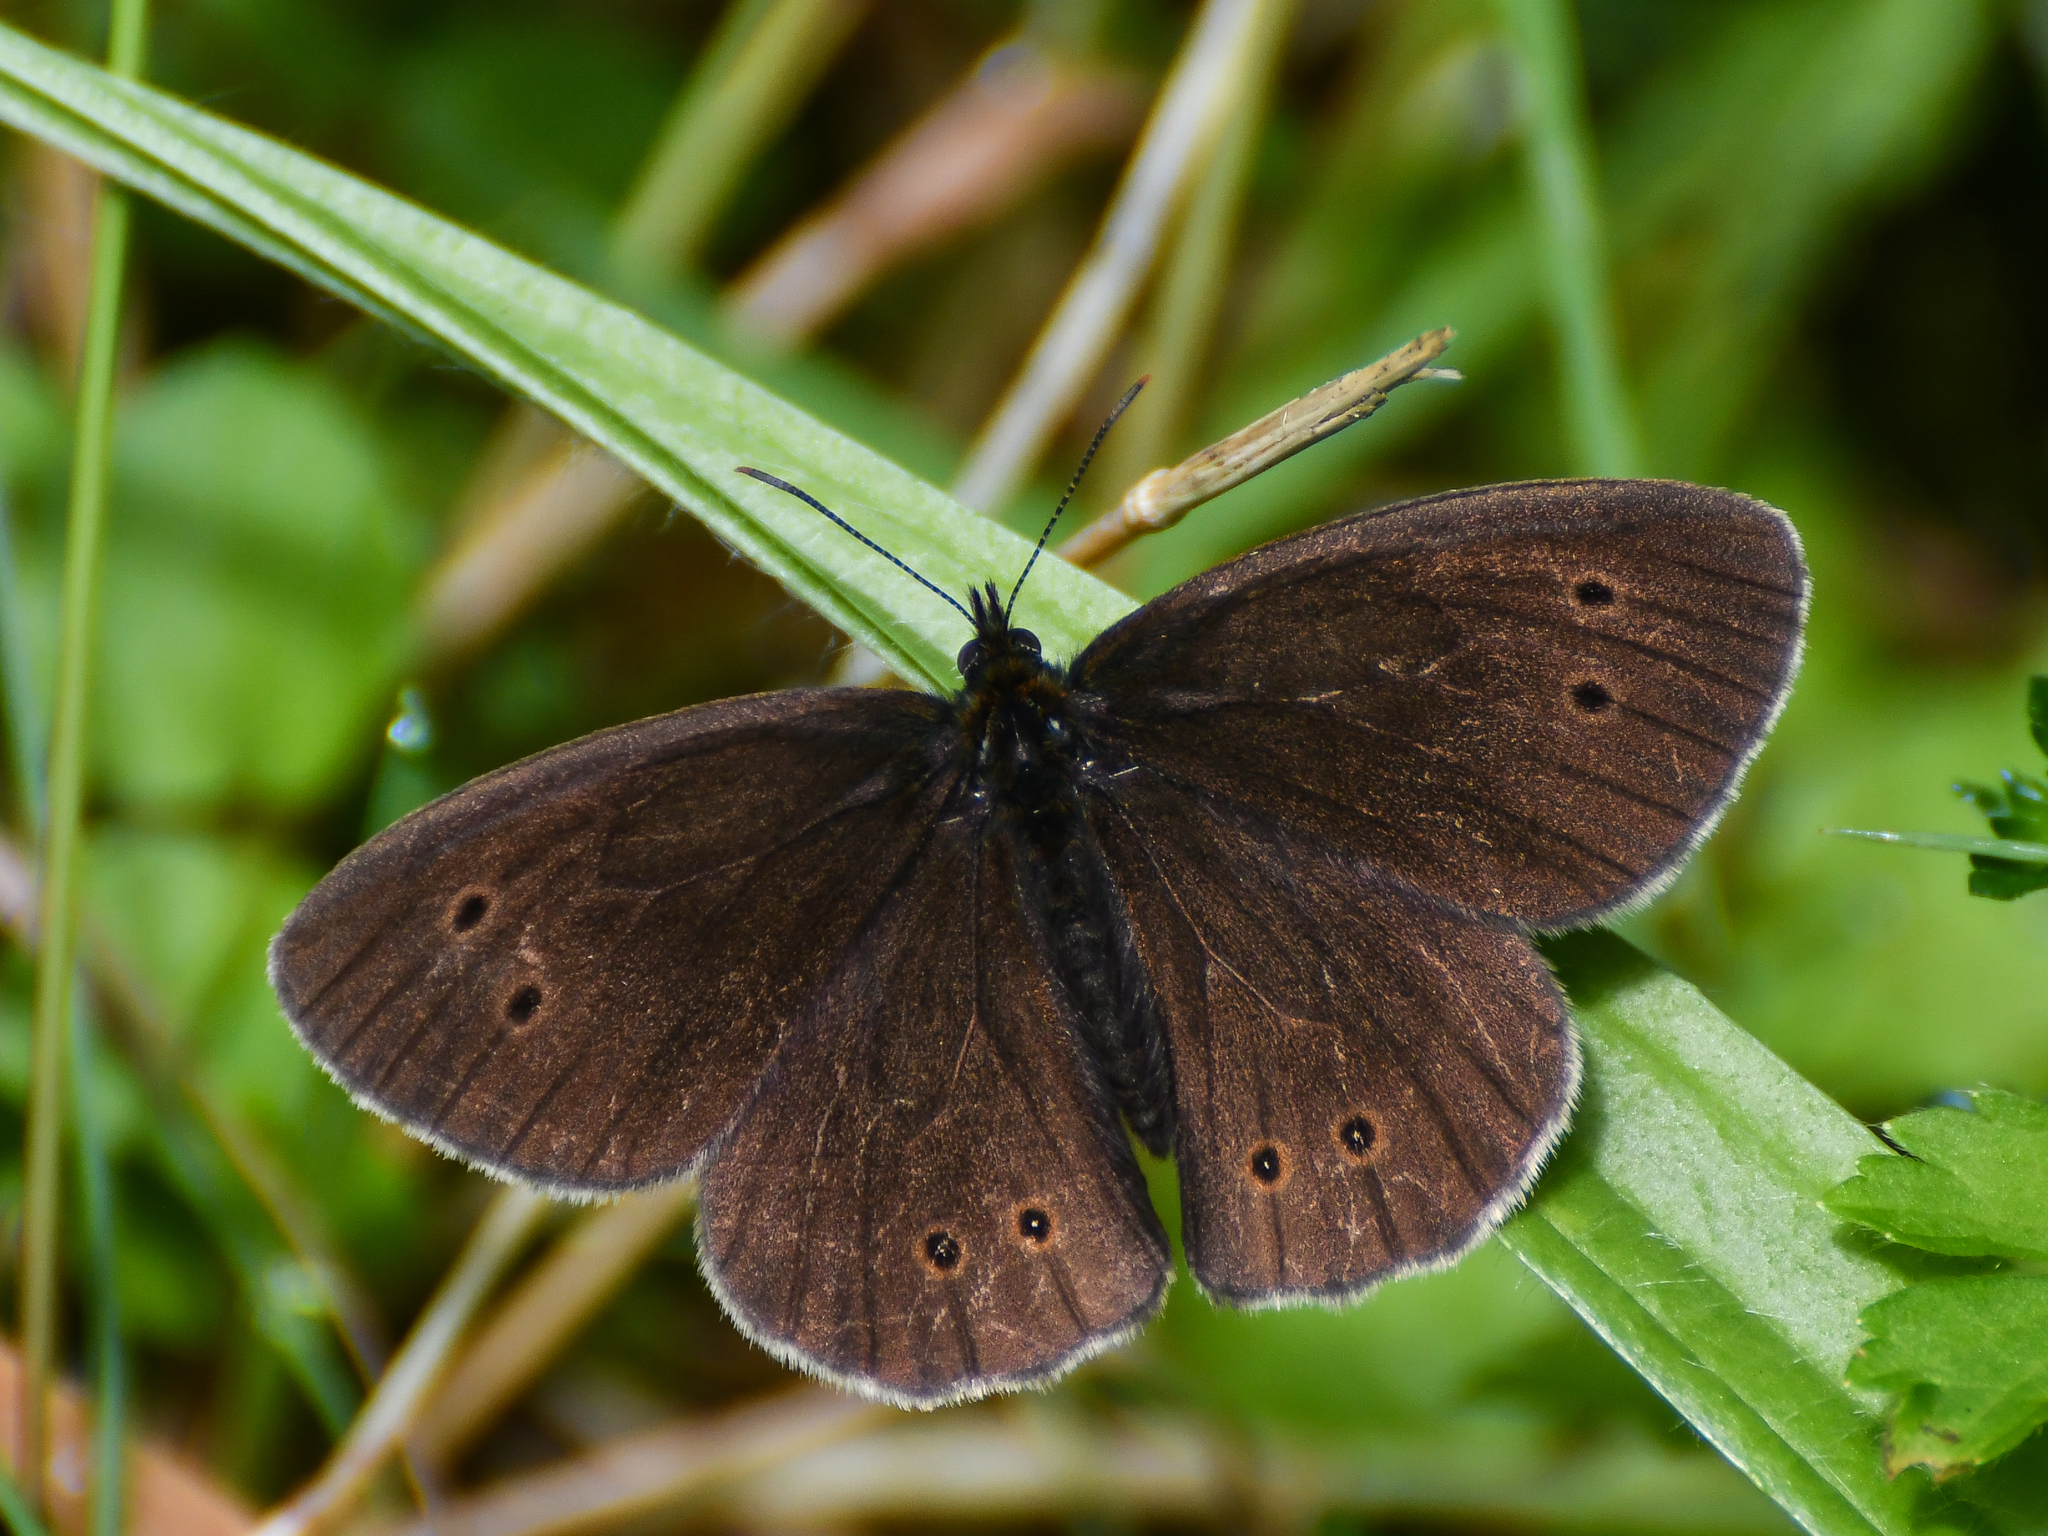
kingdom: Animalia
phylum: Arthropoda
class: Insecta
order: Lepidoptera
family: Nymphalidae
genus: Aphantopus
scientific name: Aphantopus hyperantus
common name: Ringlet
